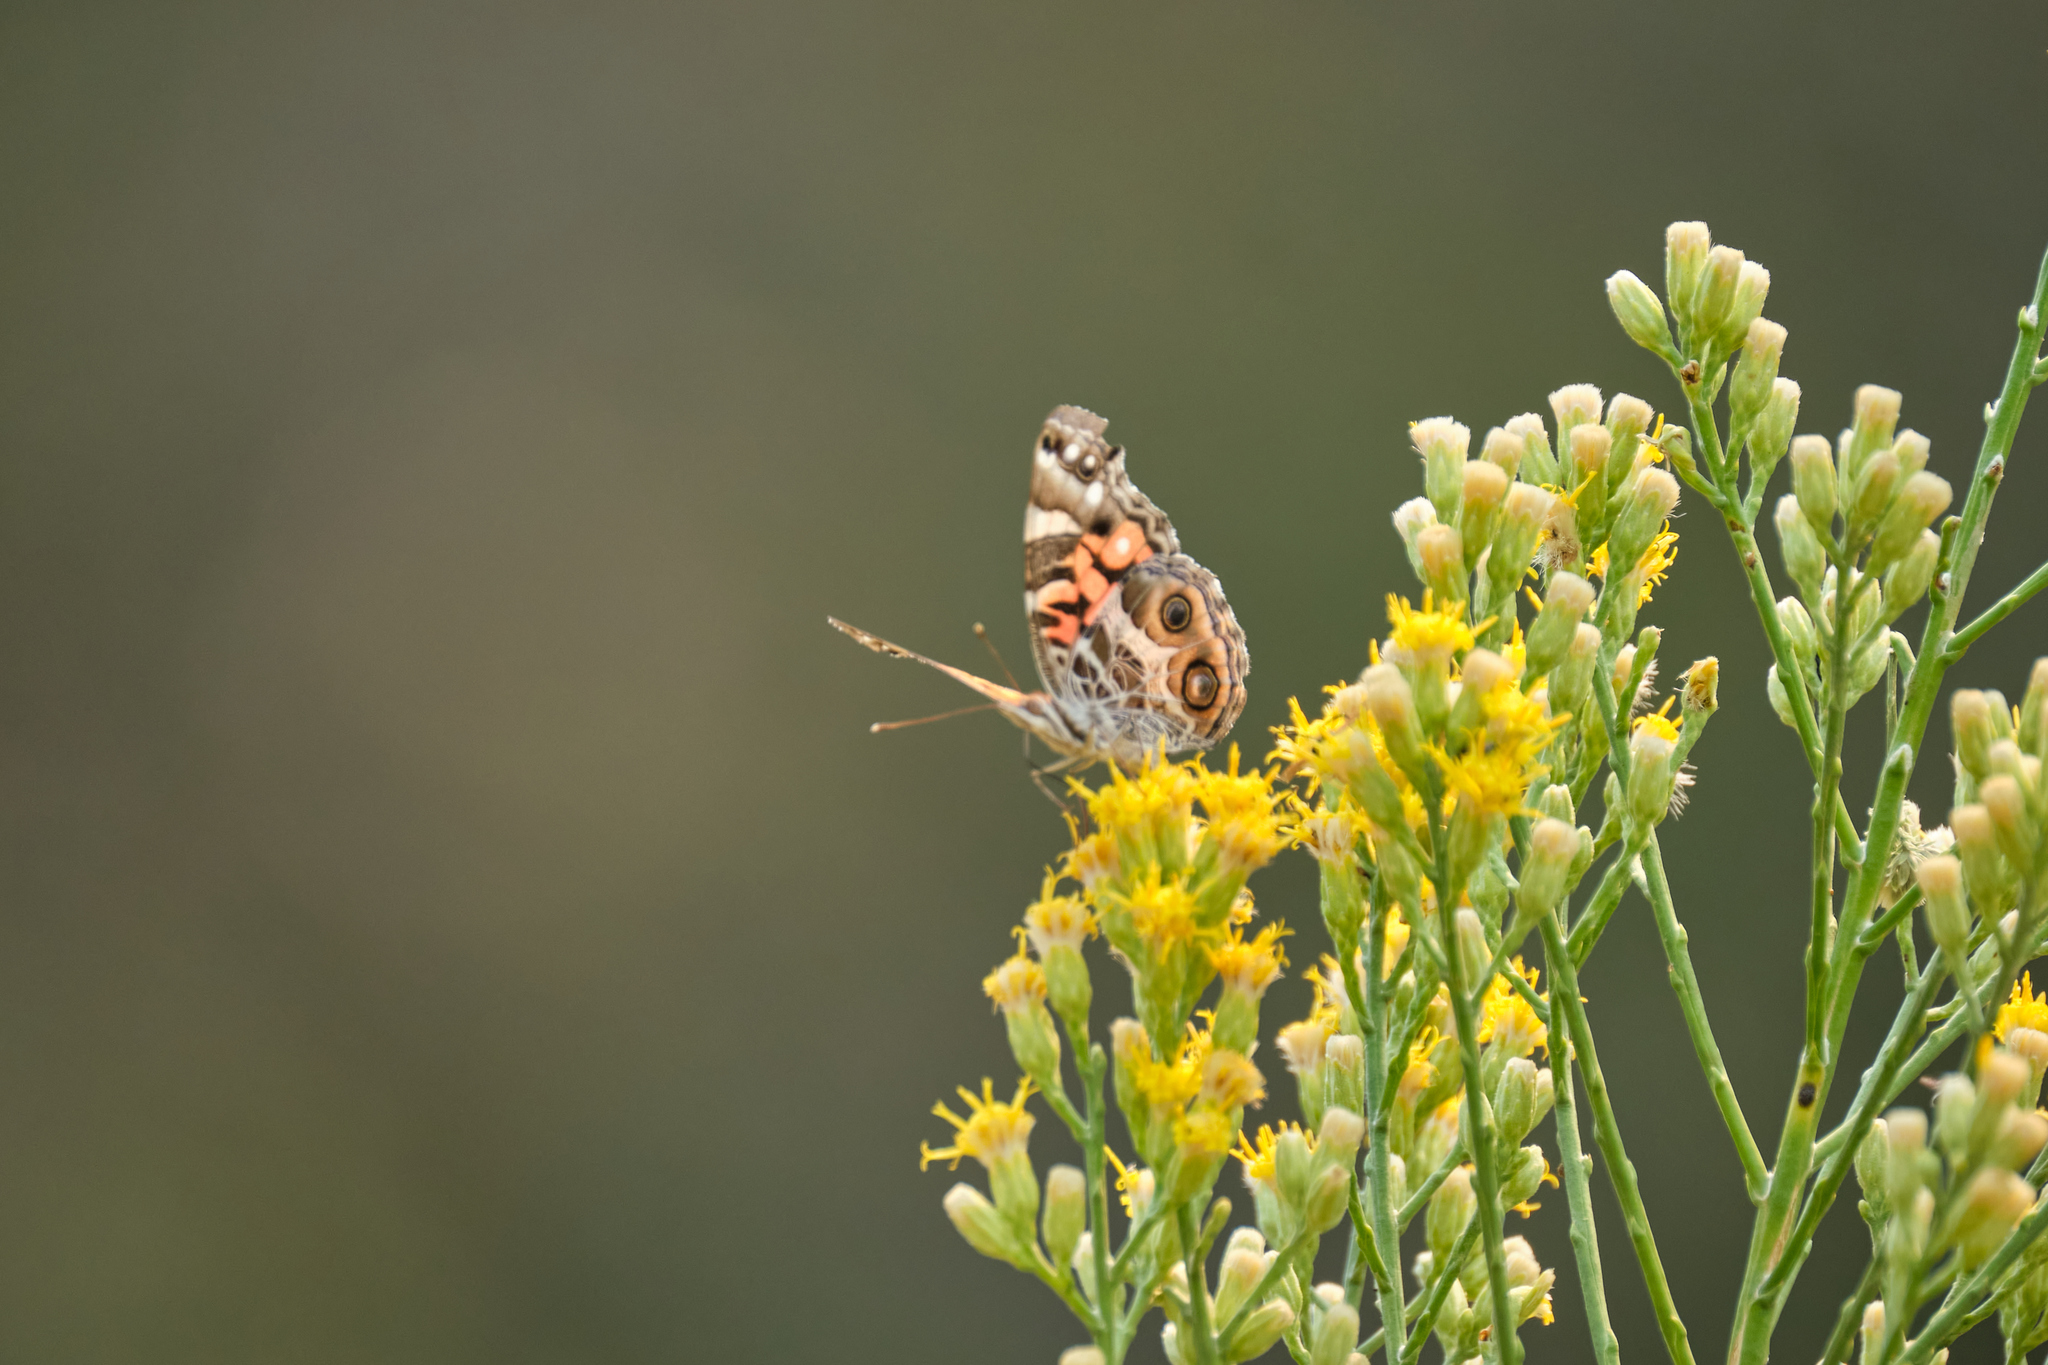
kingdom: Animalia
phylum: Arthropoda
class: Insecta
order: Lepidoptera
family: Nymphalidae
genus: Vanessa
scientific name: Vanessa virginiensis
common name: American lady
